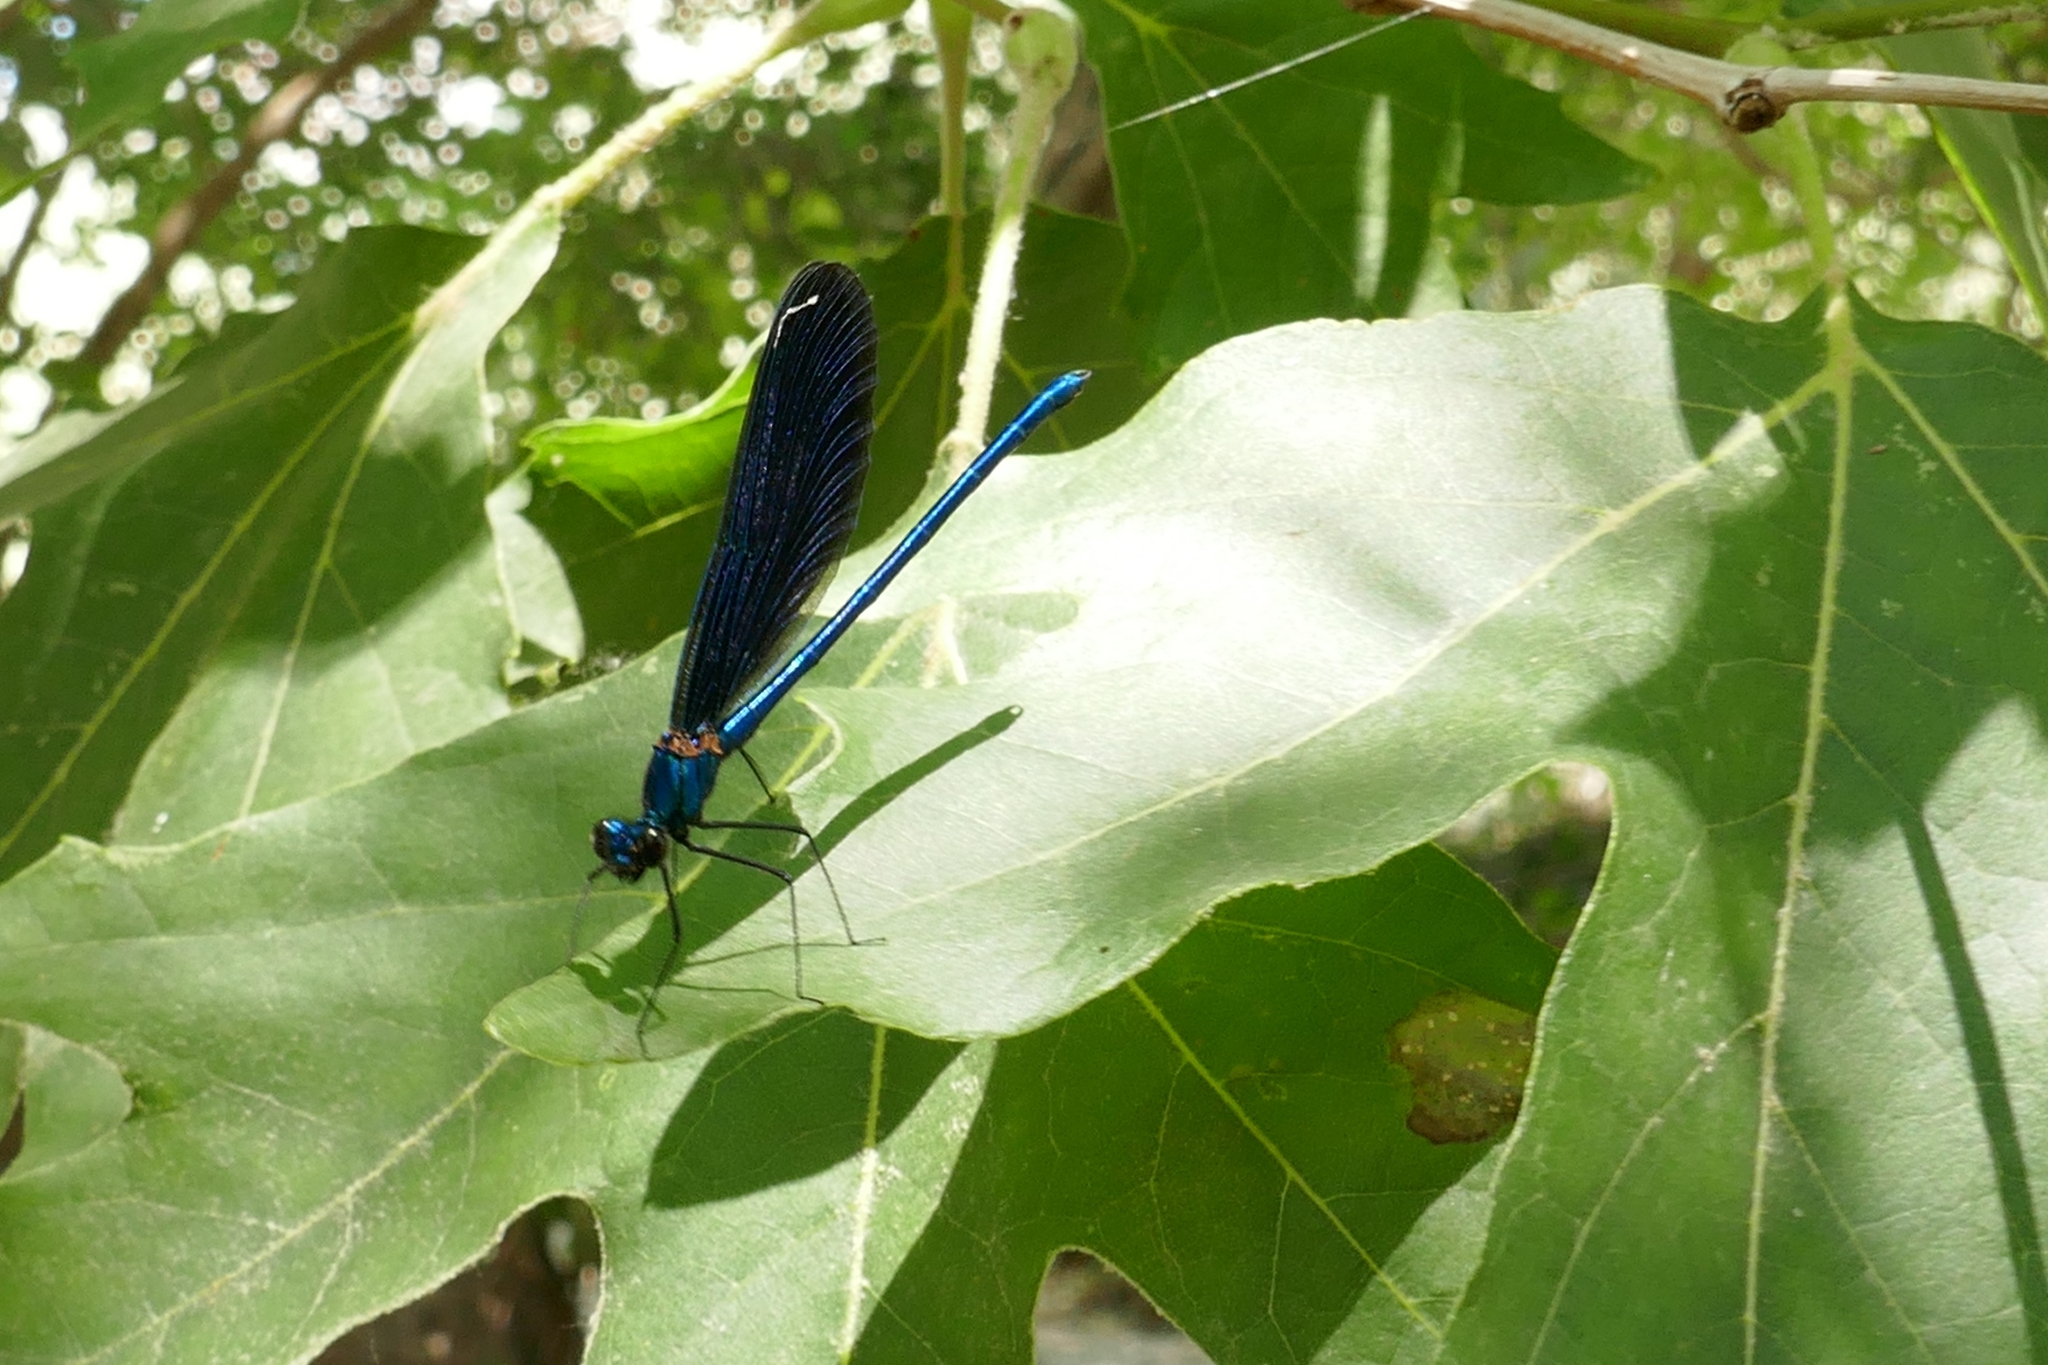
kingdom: Animalia
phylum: Arthropoda
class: Insecta
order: Odonata
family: Calopterygidae
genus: Calopteryx
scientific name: Calopteryx virgo
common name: Beautiful demoiselle
